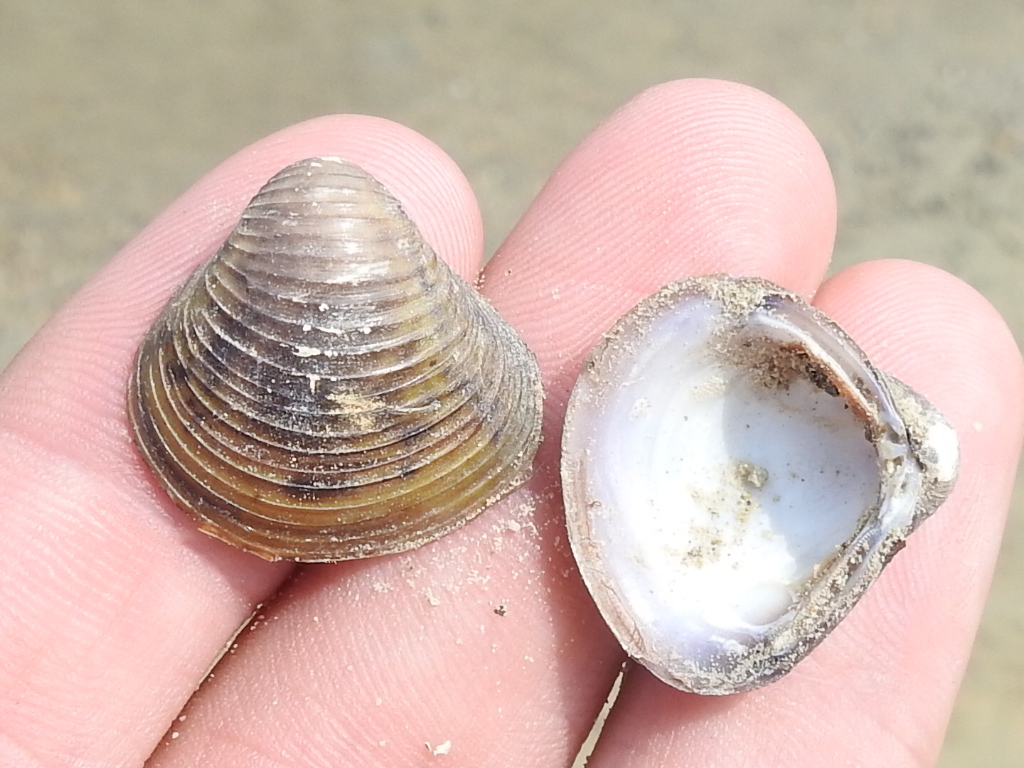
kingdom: Animalia
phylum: Mollusca
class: Bivalvia
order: Venerida
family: Cyrenidae
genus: Corbicula
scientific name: Corbicula fluminea
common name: Asian clam
